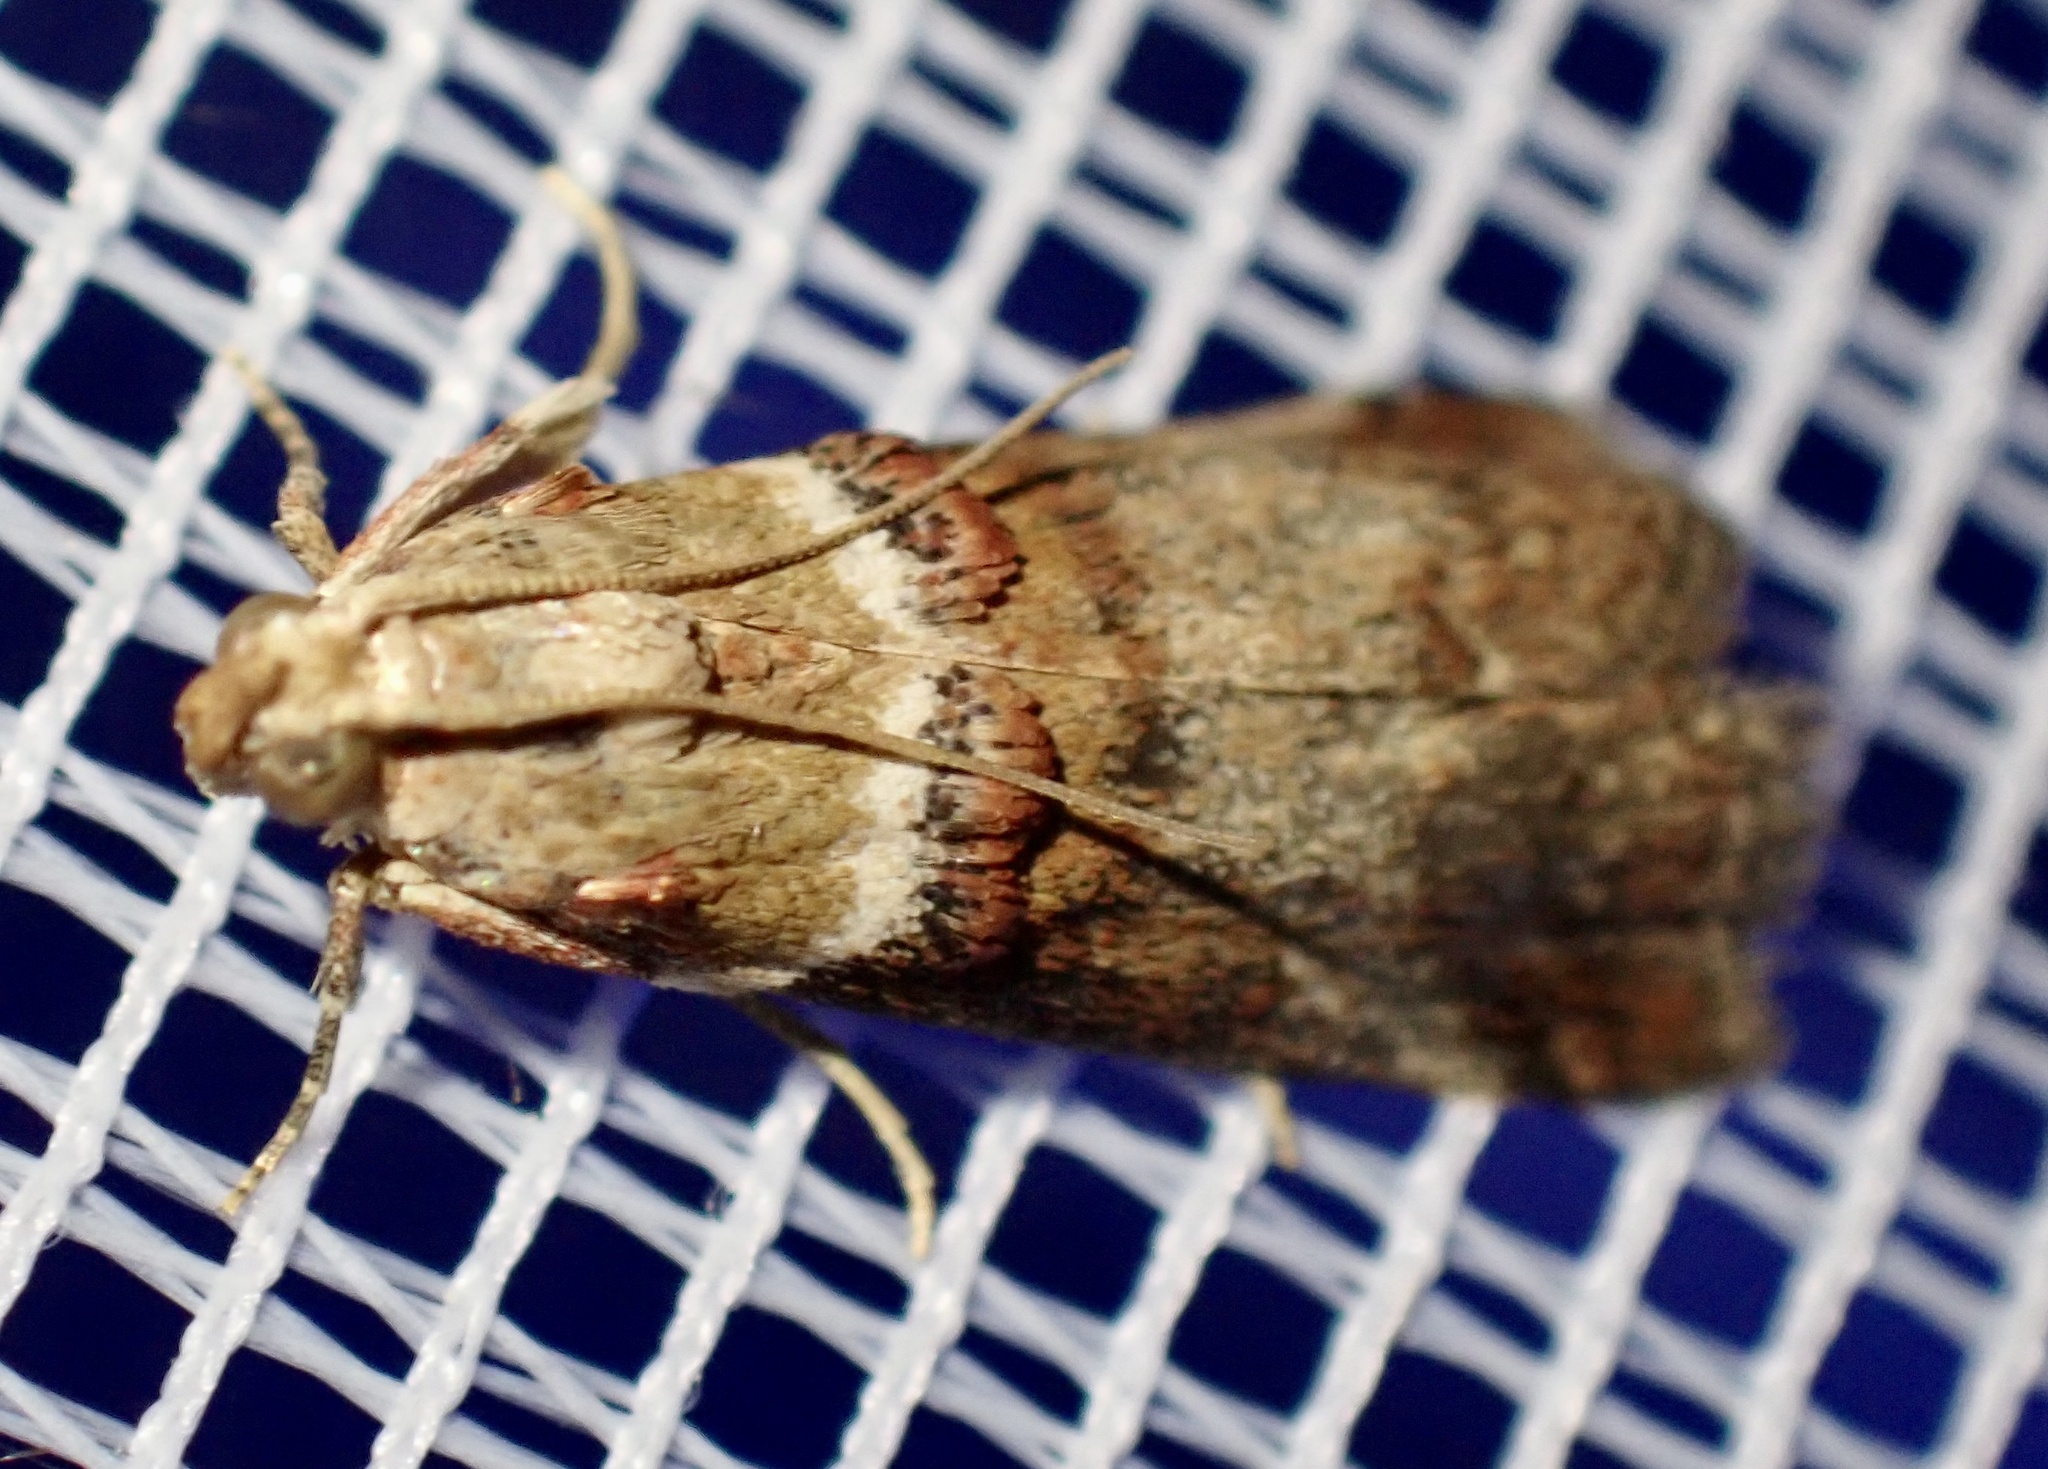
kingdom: Animalia
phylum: Arthropoda
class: Insecta
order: Lepidoptera
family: Pyralidae
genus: Acrobasis
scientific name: Acrobasis tumidana
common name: Scarce oak knot-horn
